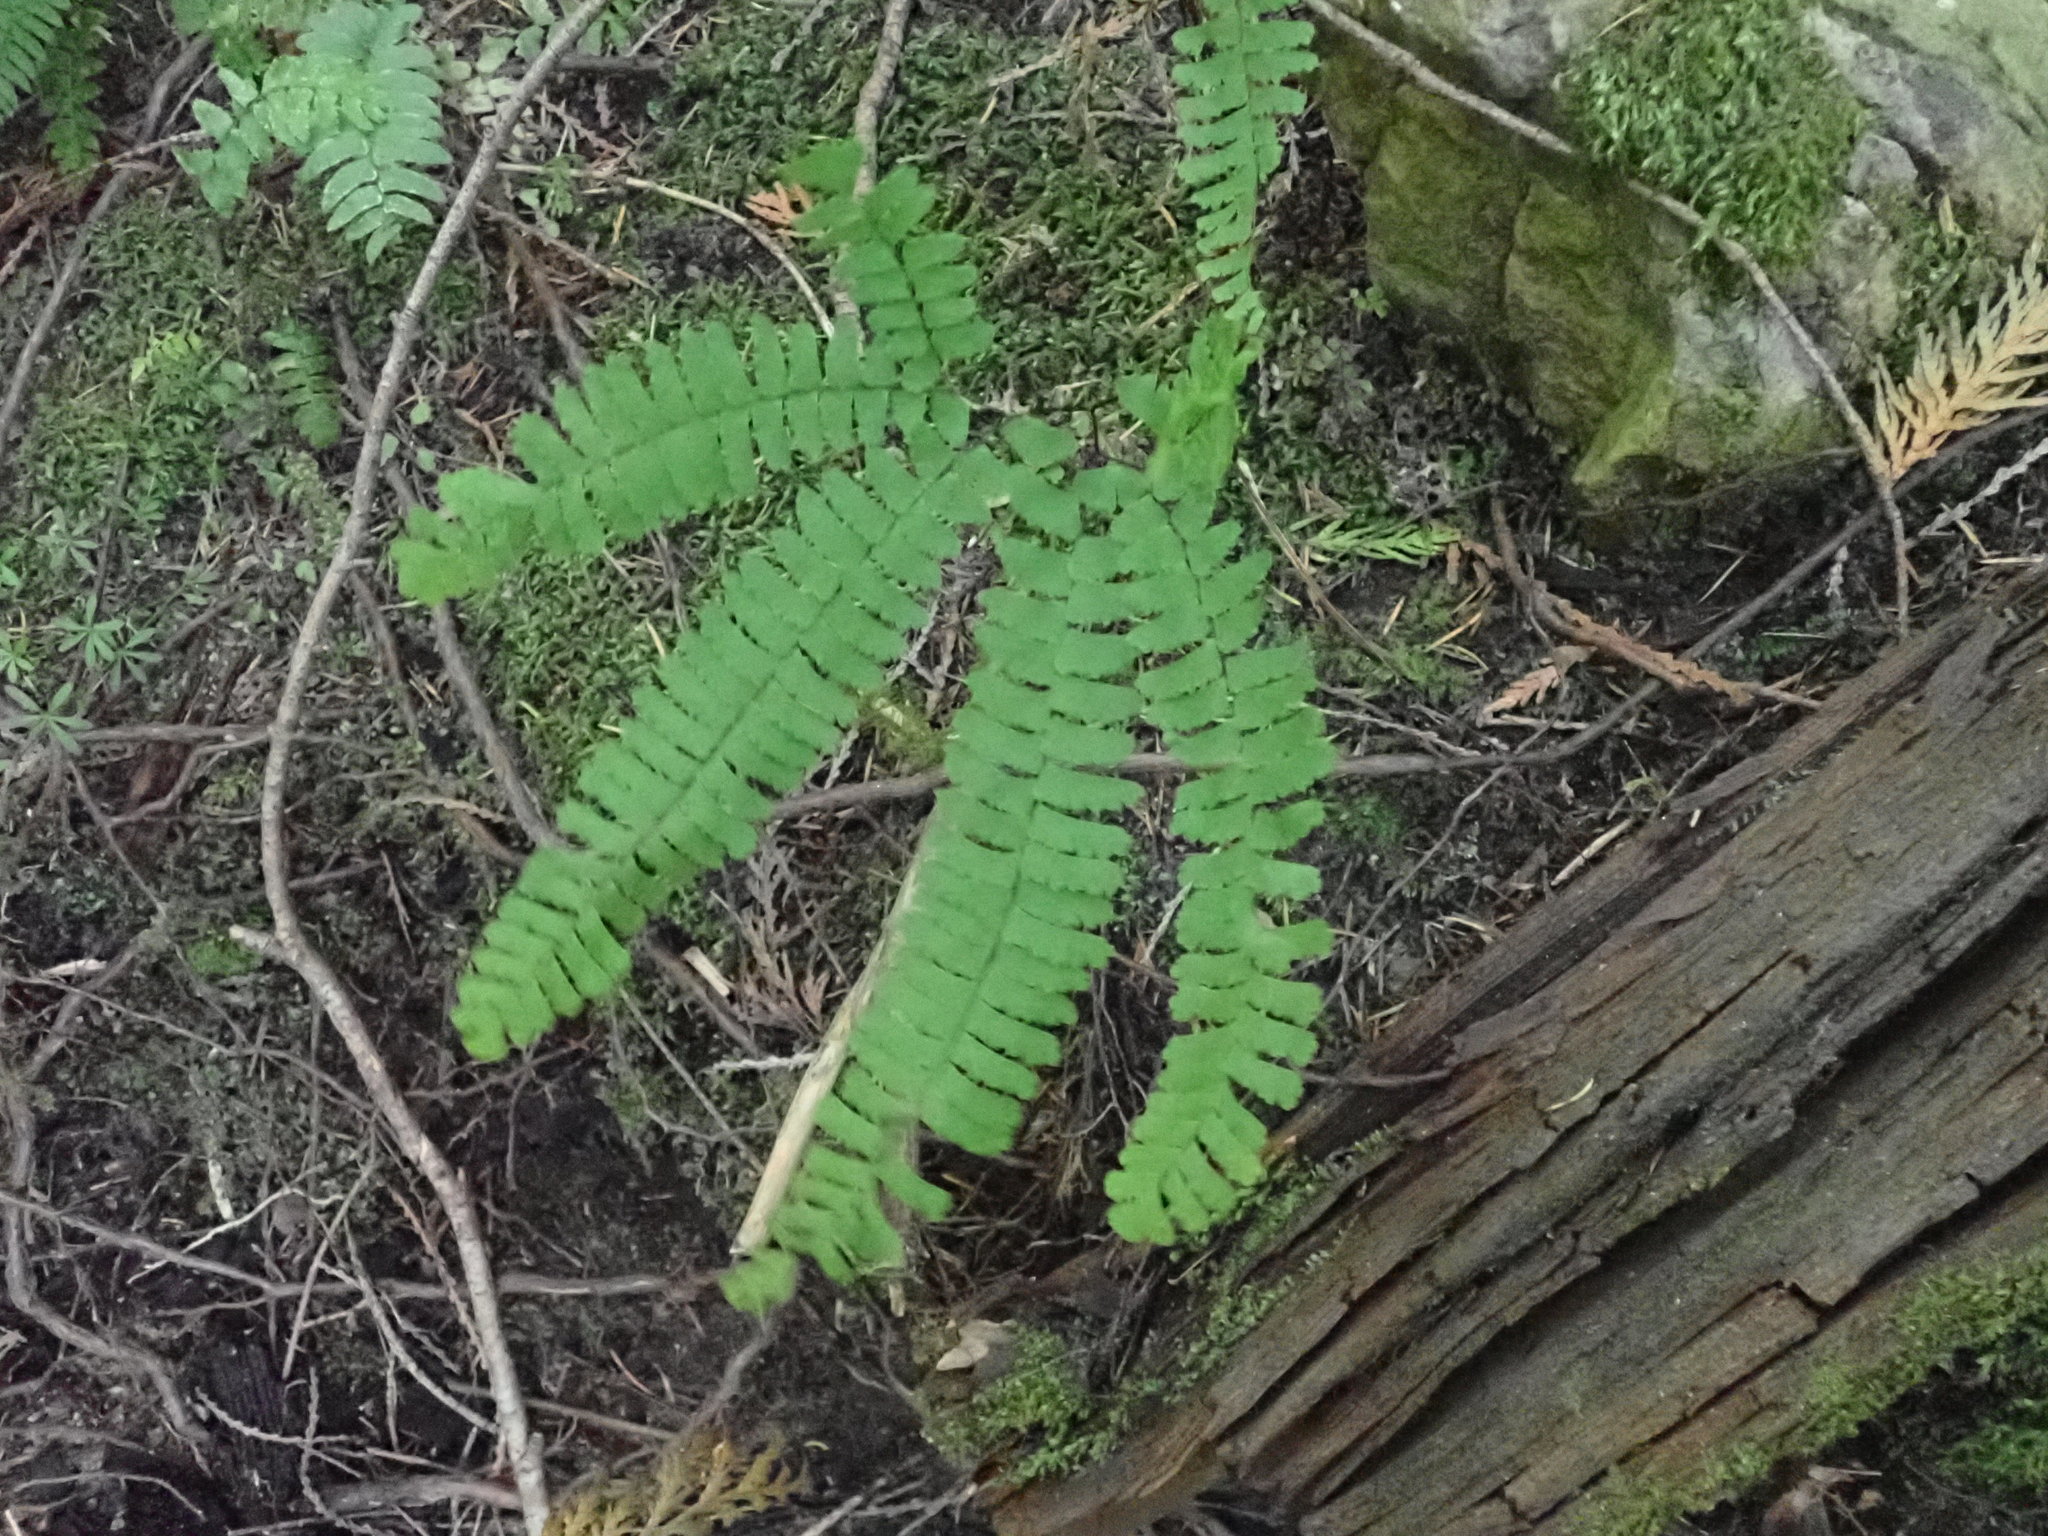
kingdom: Plantae
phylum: Tracheophyta
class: Polypodiopsida
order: Polypodiales
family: Pteridaceae
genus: Adiantum
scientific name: Adiantum aleuticum
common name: Aleutian maidenhair fern
